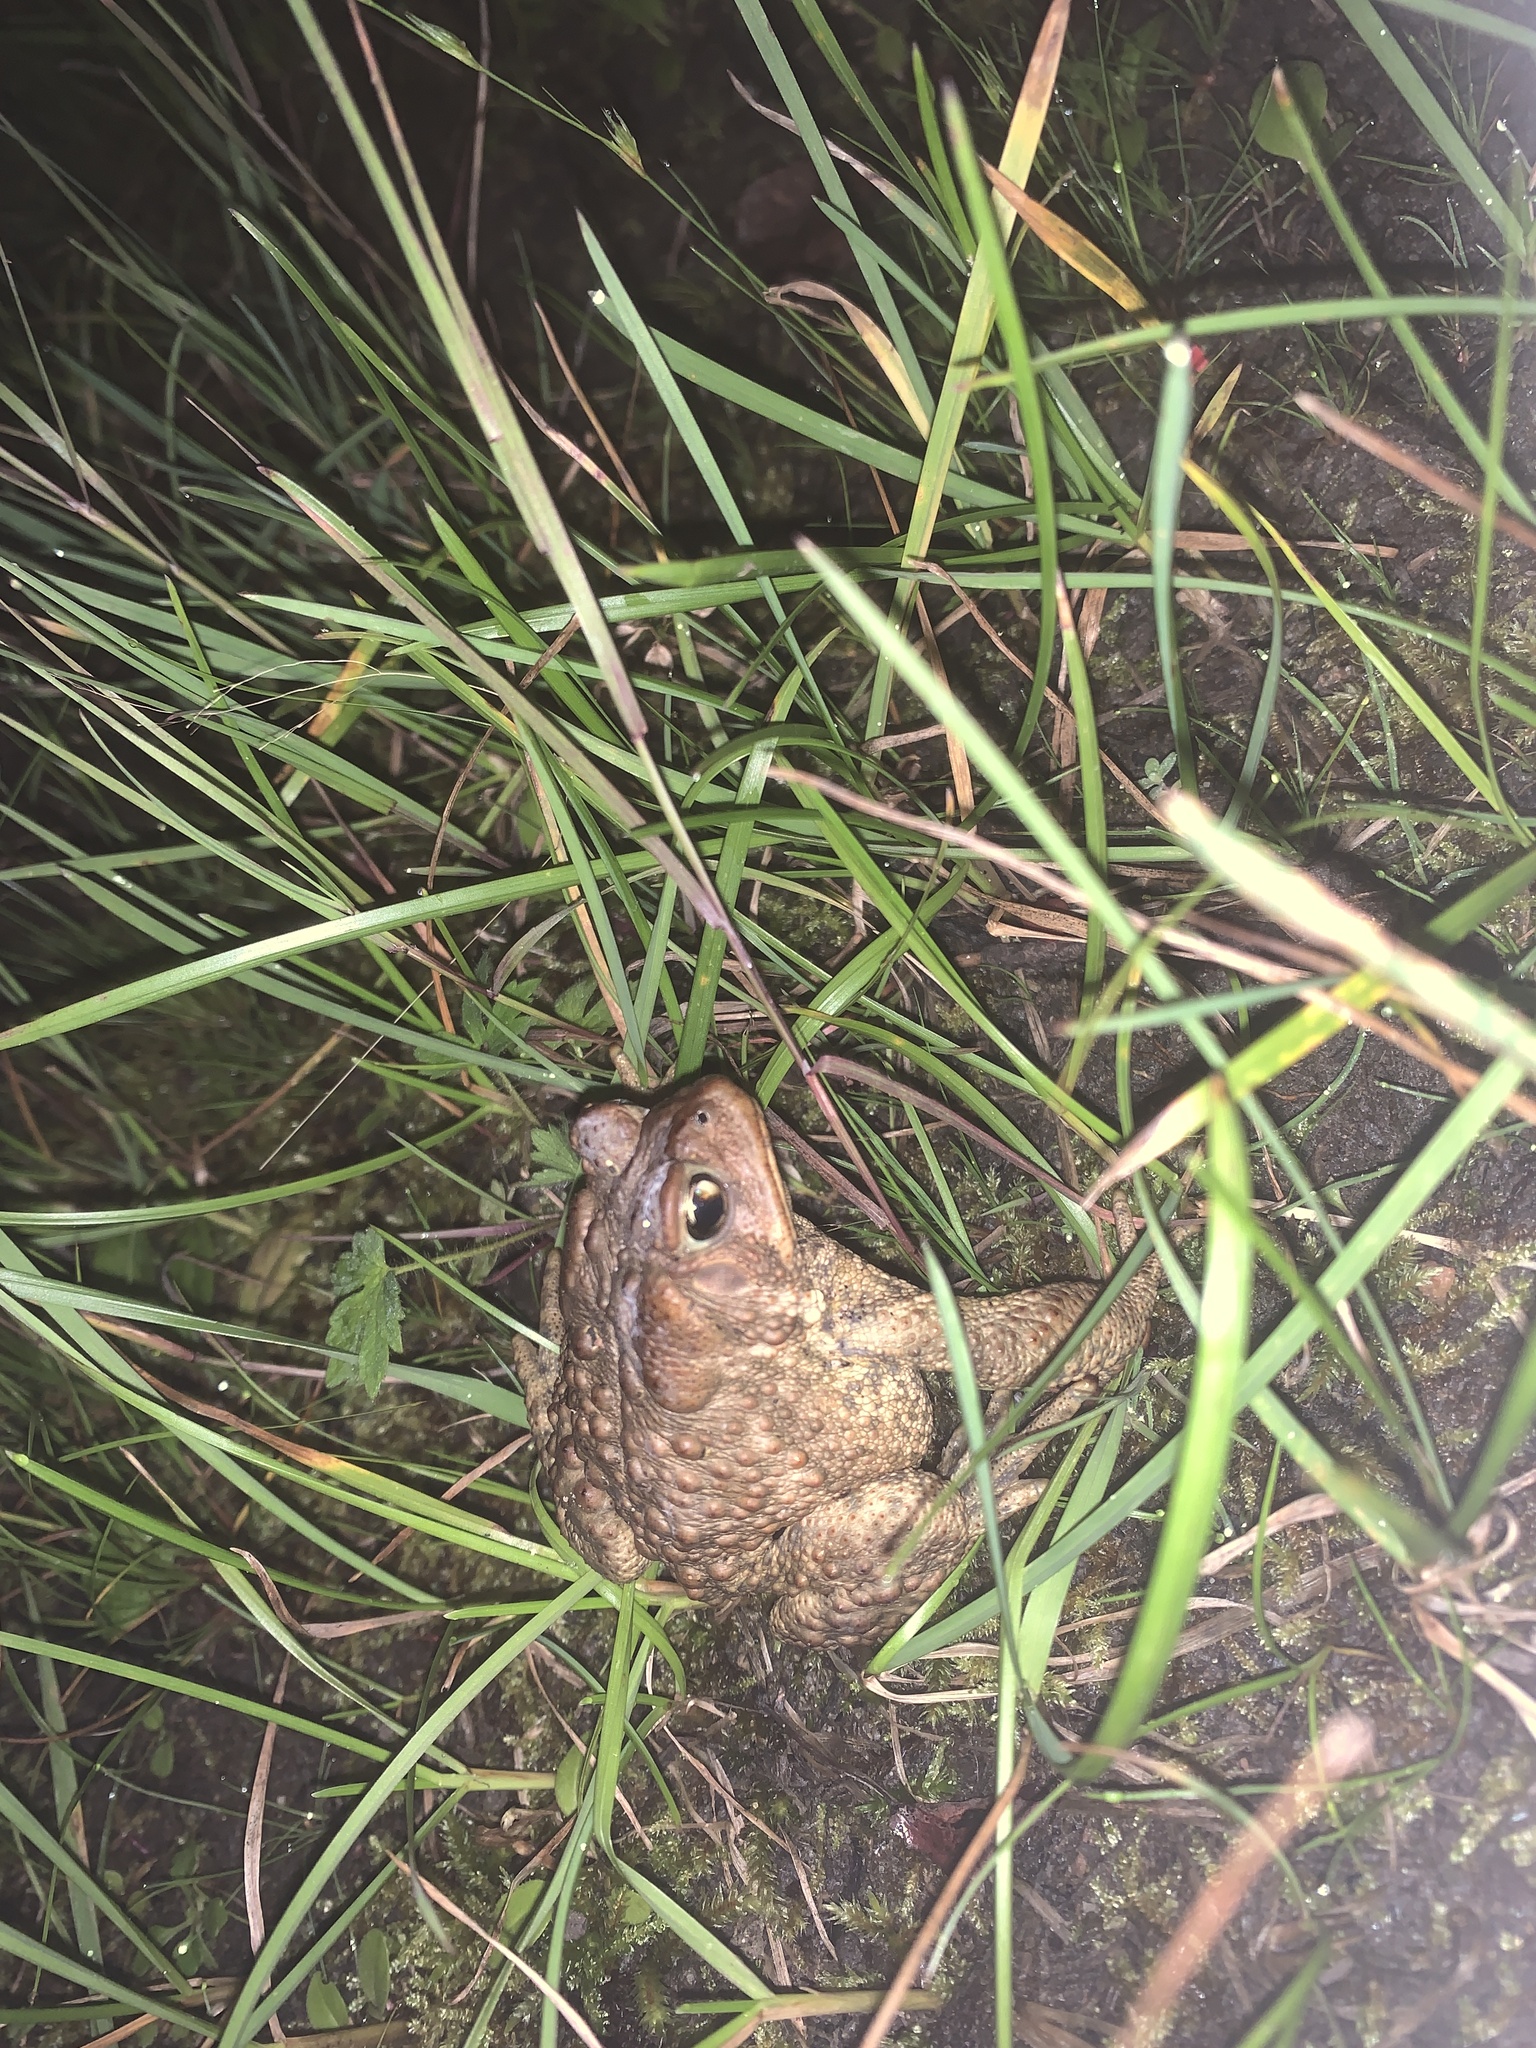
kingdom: Animalia
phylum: Chordata
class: Amphibia
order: Anura
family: Bufonidae
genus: Anaxyrus
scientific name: Anaxyrus americanus
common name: American toad
